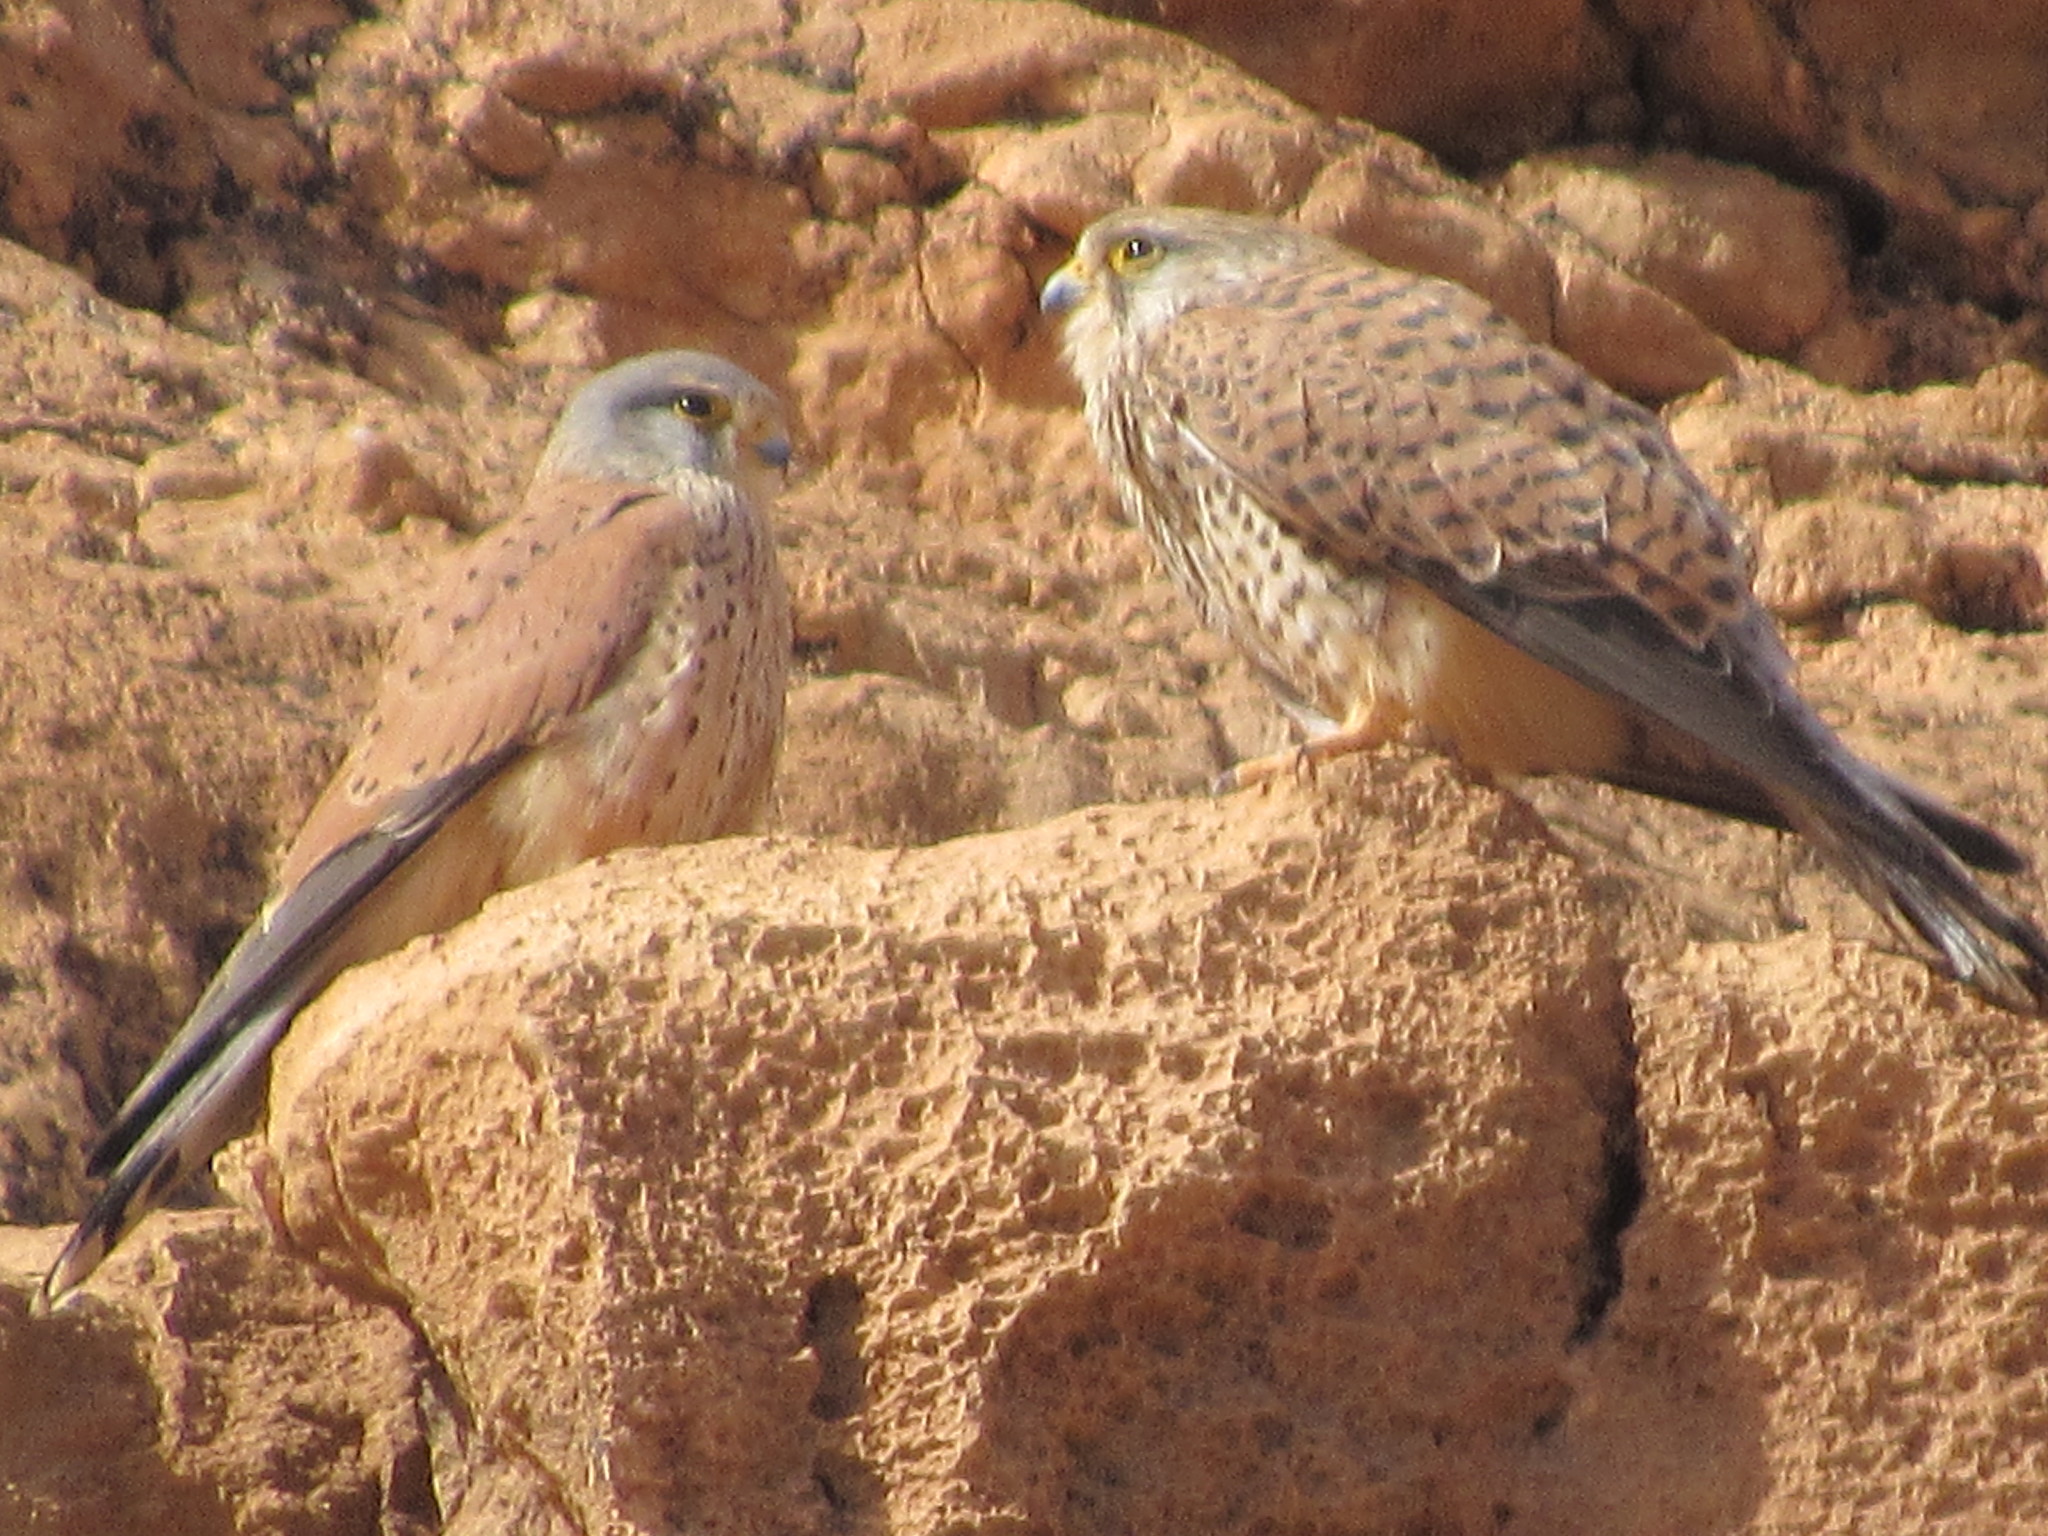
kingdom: Animalia
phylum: Chordata
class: Aves
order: Falconiformes
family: Falconidae
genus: Falco
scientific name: Falco tinnunculus
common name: Common kestrel
